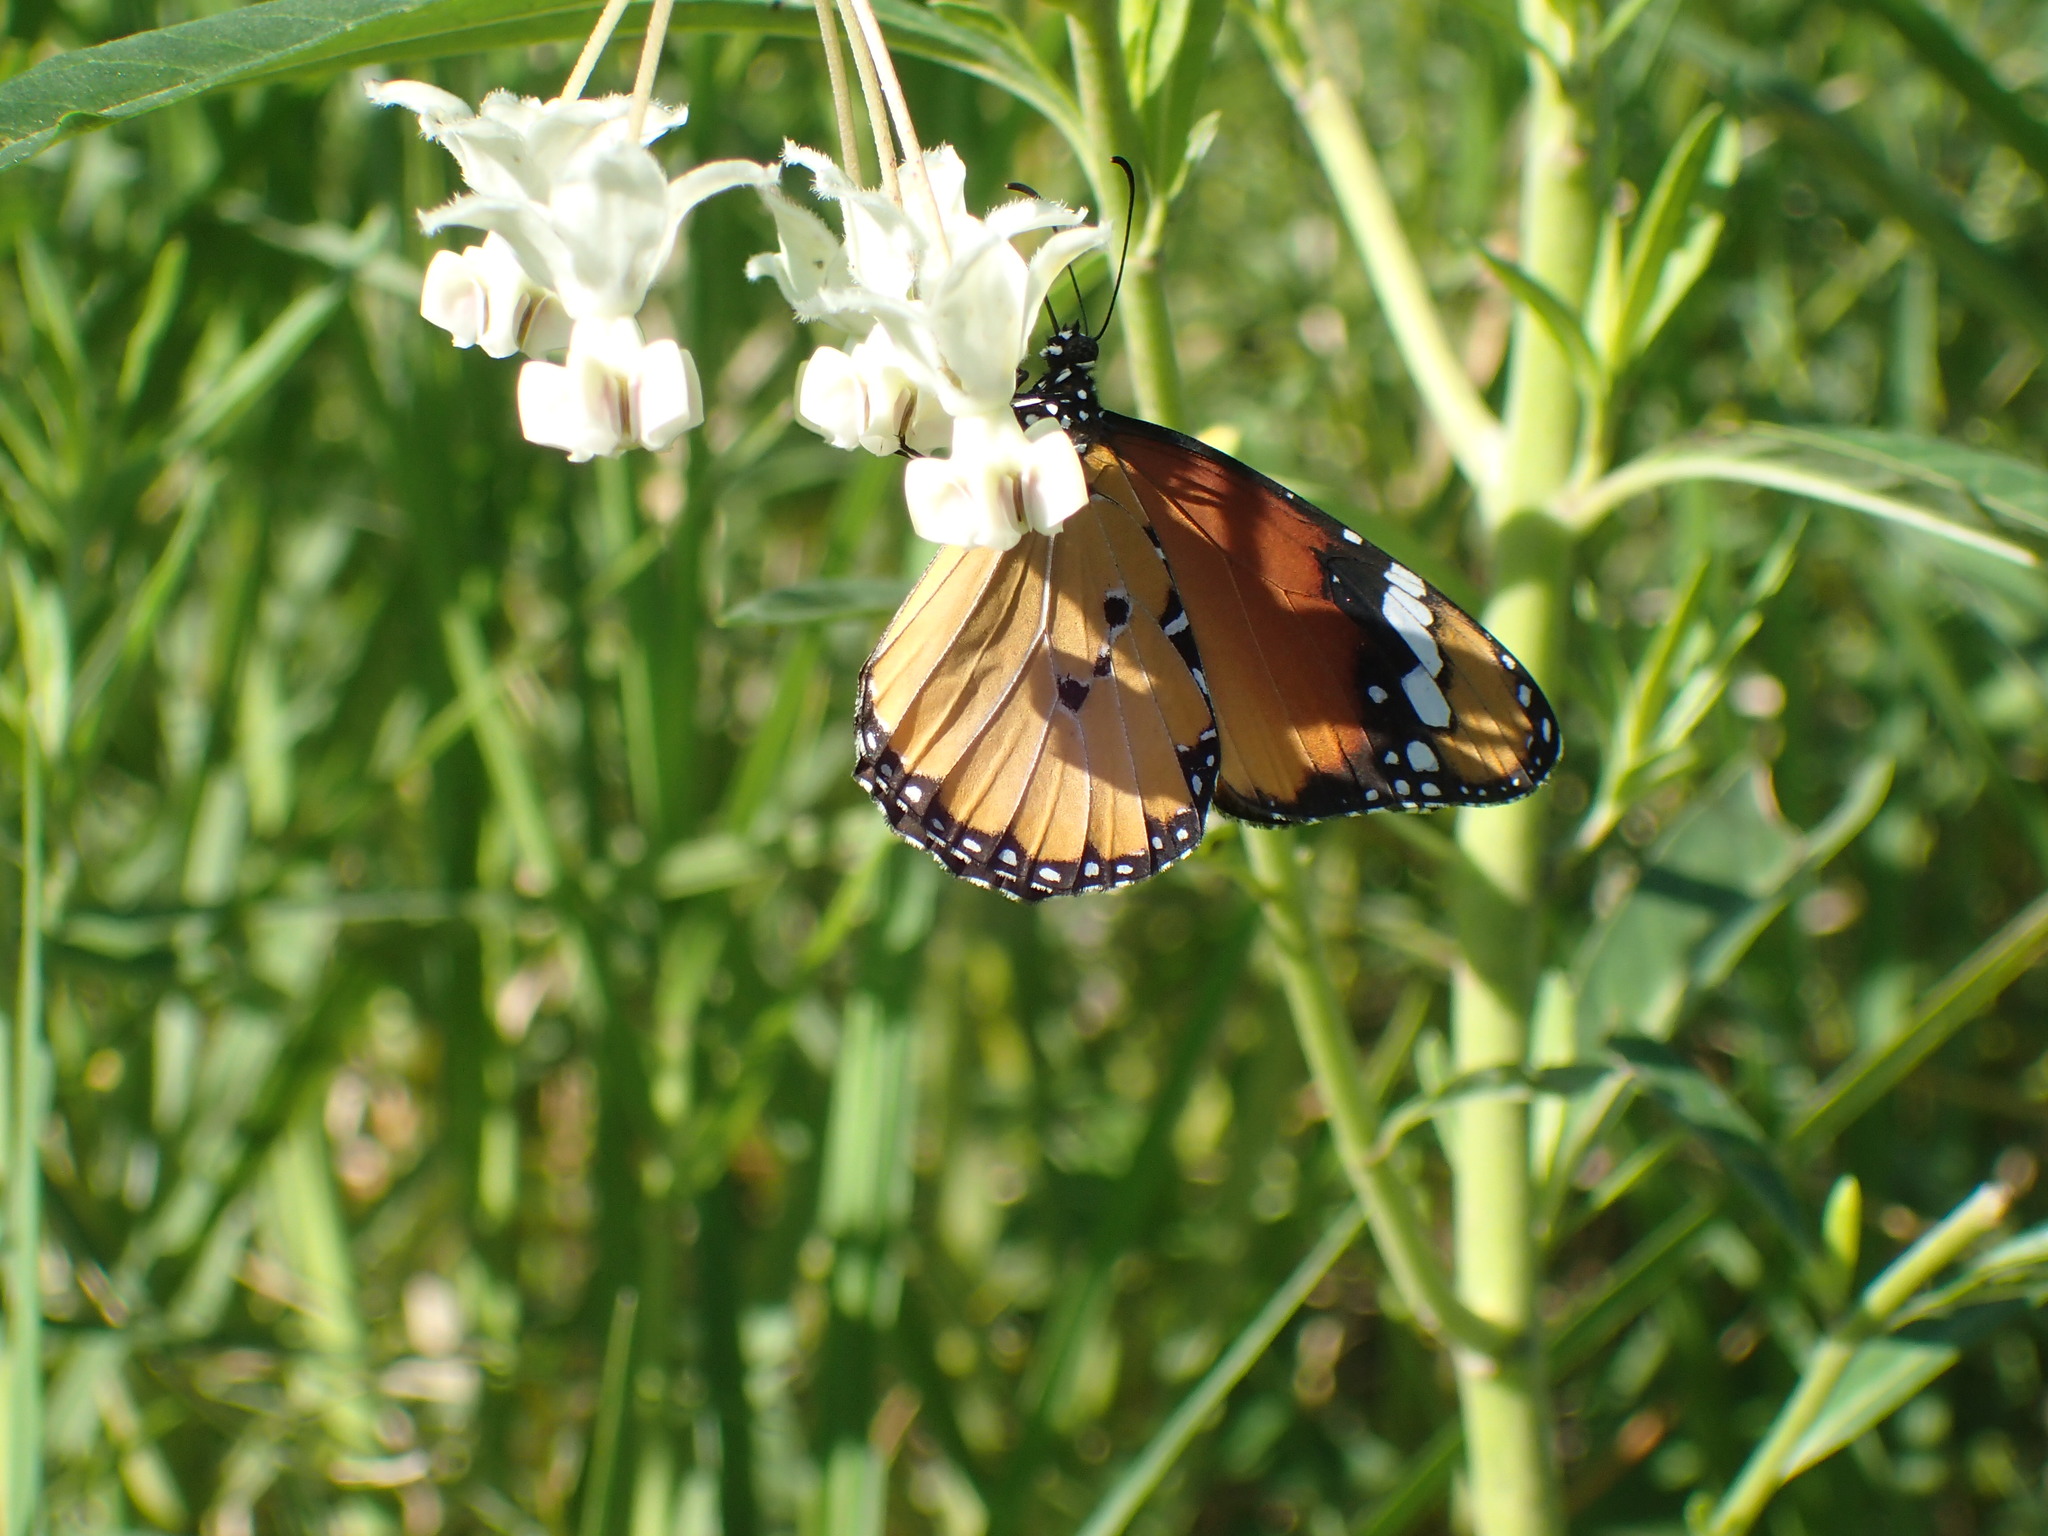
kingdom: Animalia
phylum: Arthropoda
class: Insecta
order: Lepidoptera
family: Nymphalidae
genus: Danaus
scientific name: Danaus chrysippus
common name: Plain tiger
